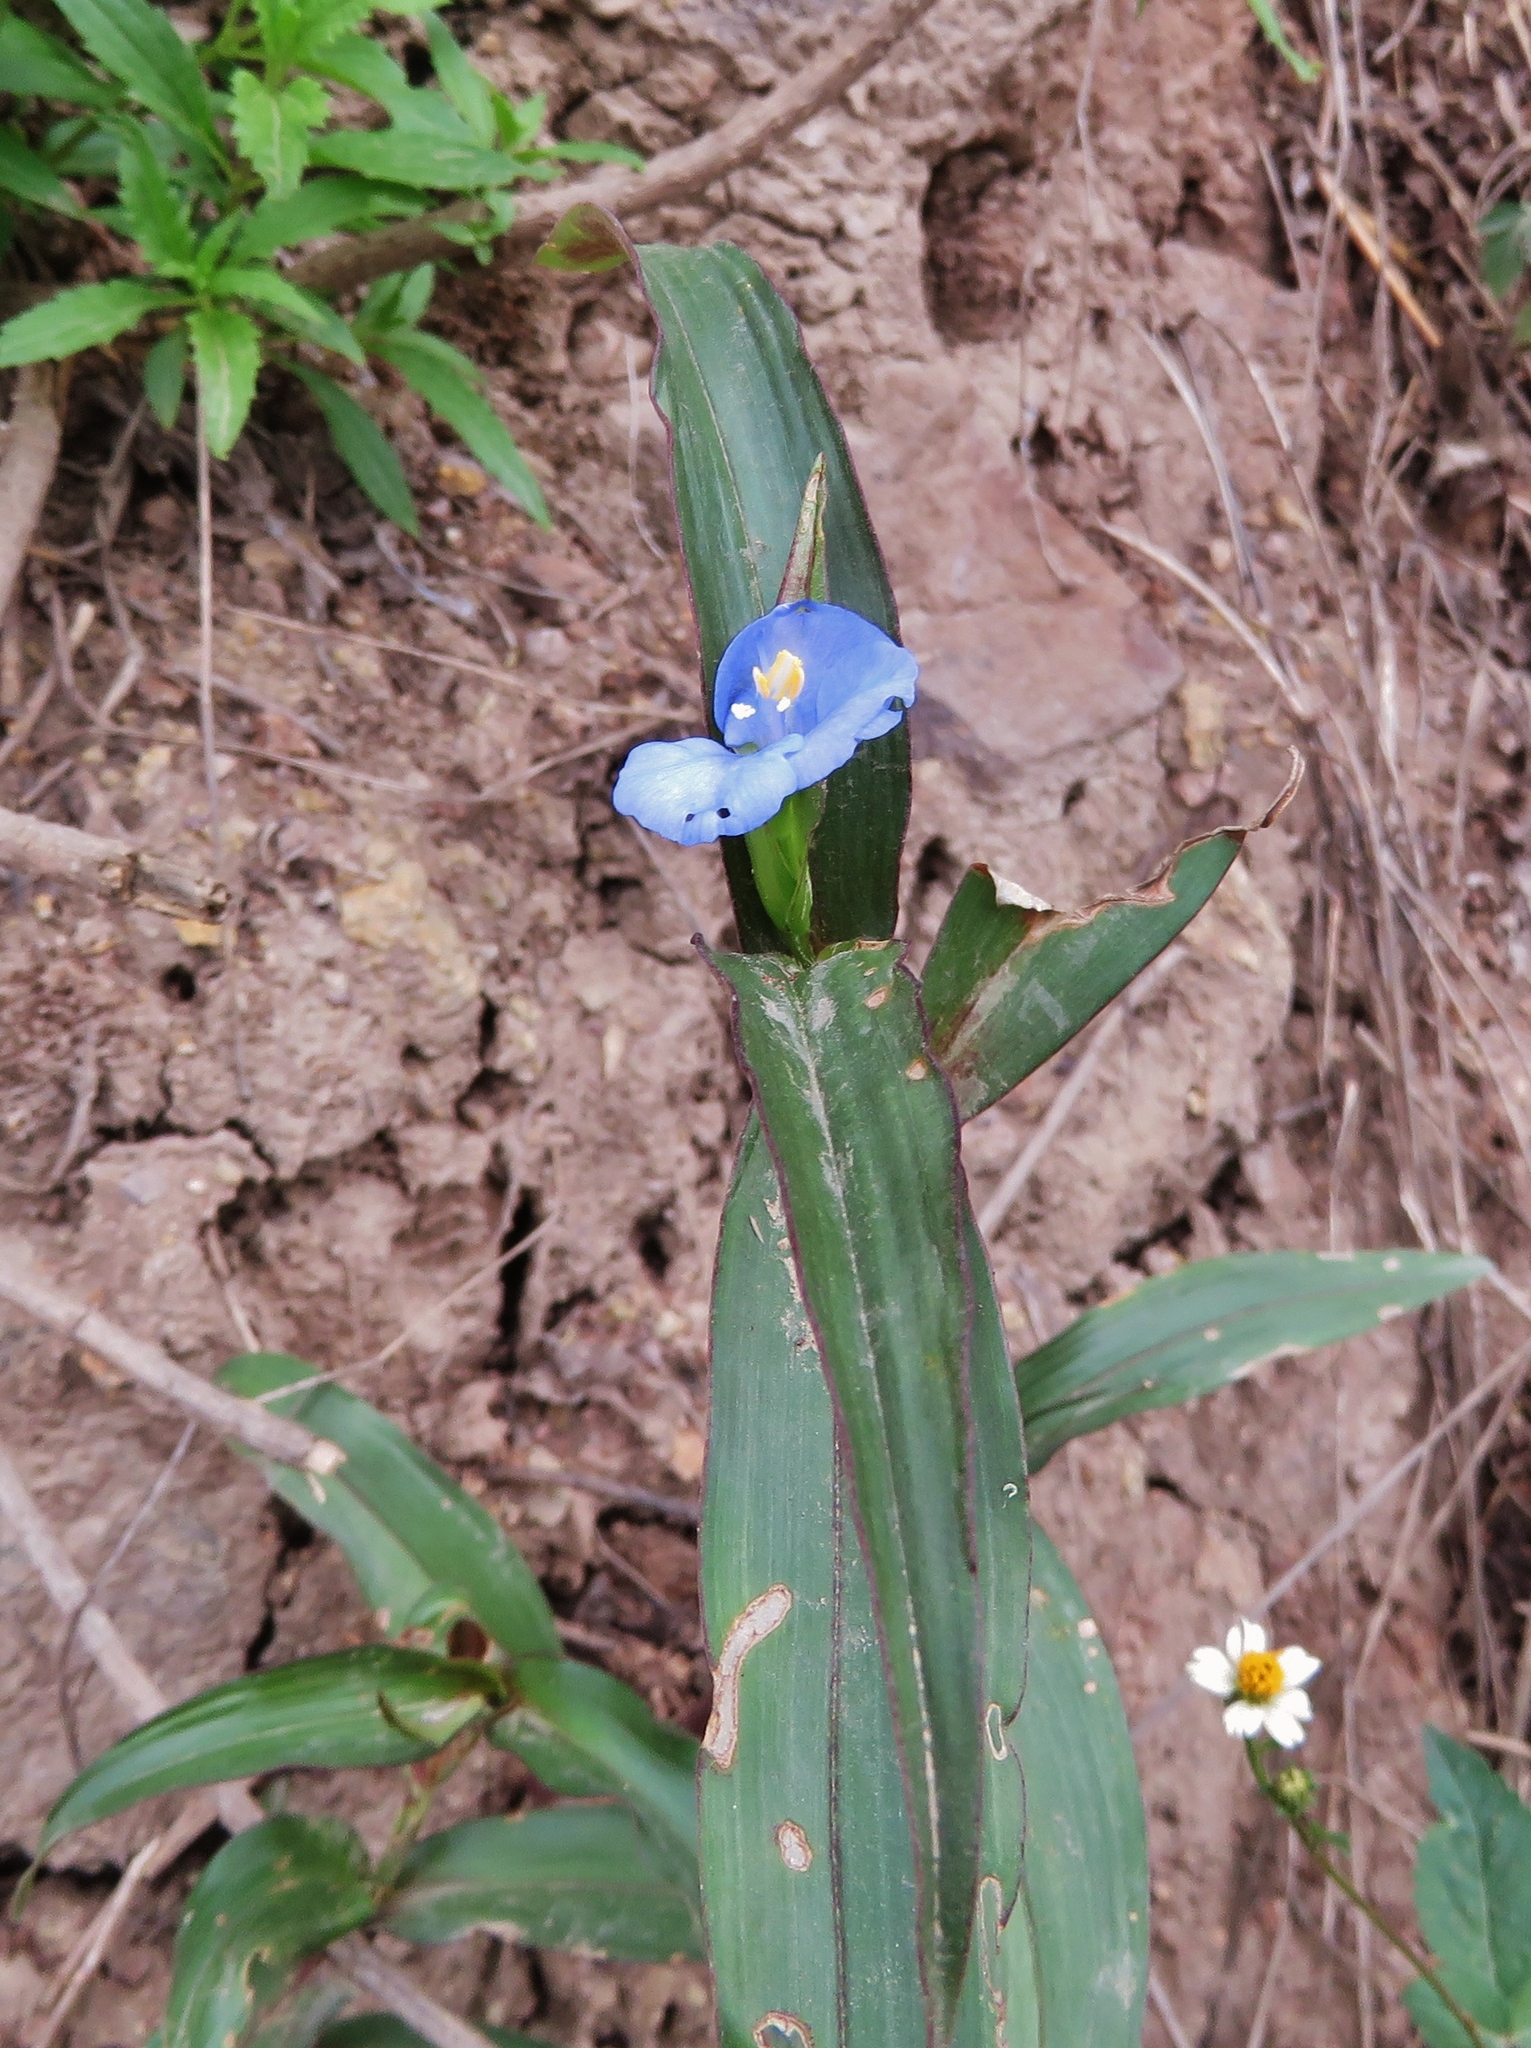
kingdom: Plantae
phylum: Tracheophyta
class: Liliopsida
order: Commelinales
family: Commelinaceae
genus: Commelina
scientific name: Commelina tuberosa
